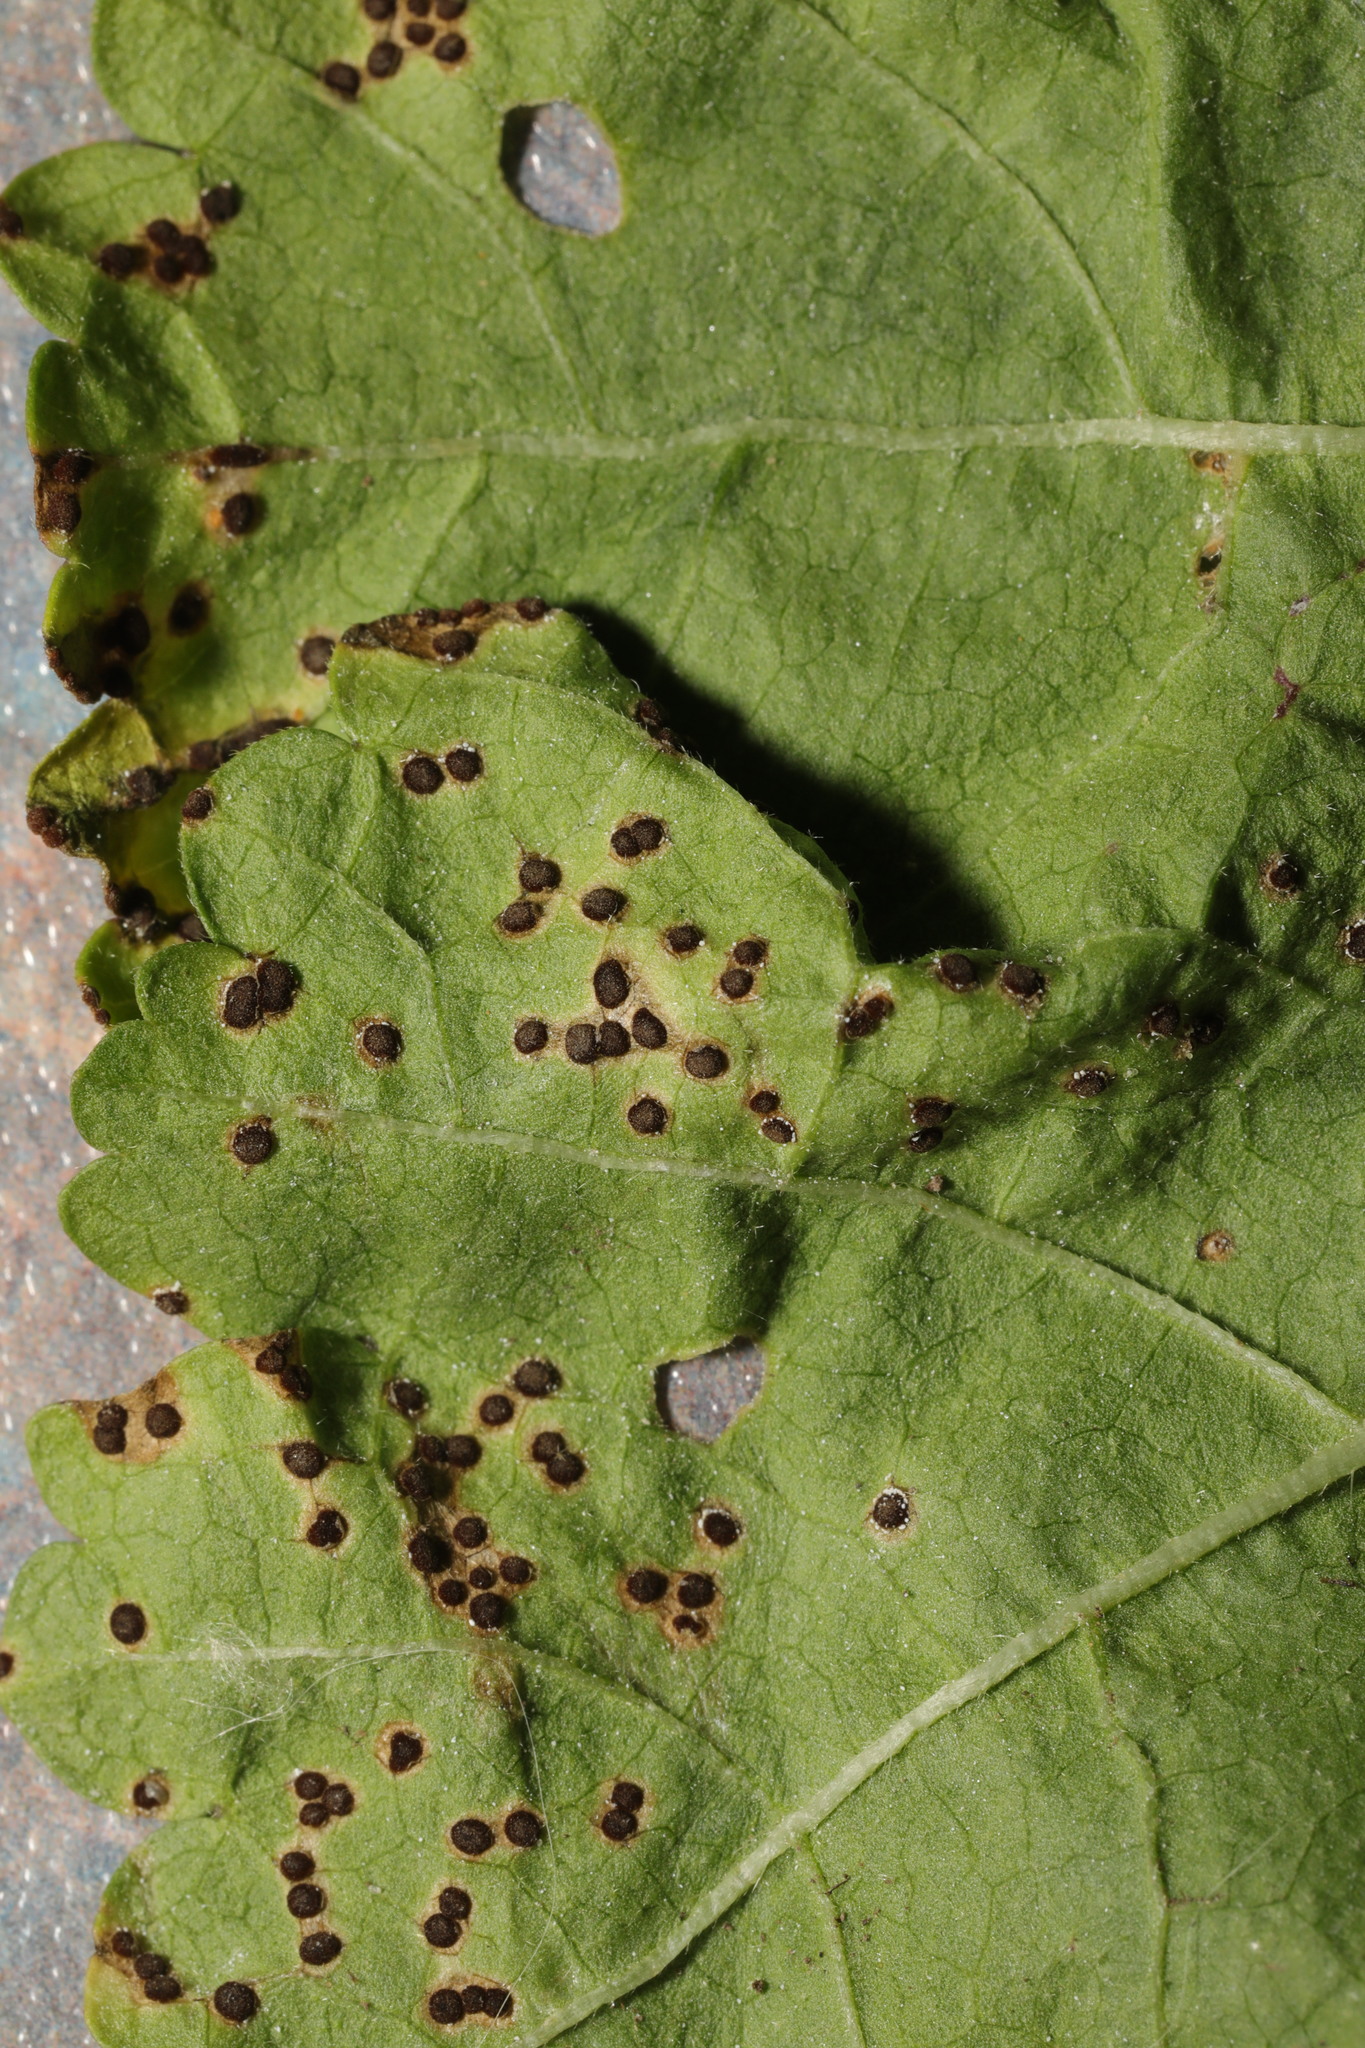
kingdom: Fungi
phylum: Basidiomycota
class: Pucciniomycetes
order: Pucciniales
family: Pucciniaceae
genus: Puccinia
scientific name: Puccinia malvacearum
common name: Hollyhock rust
